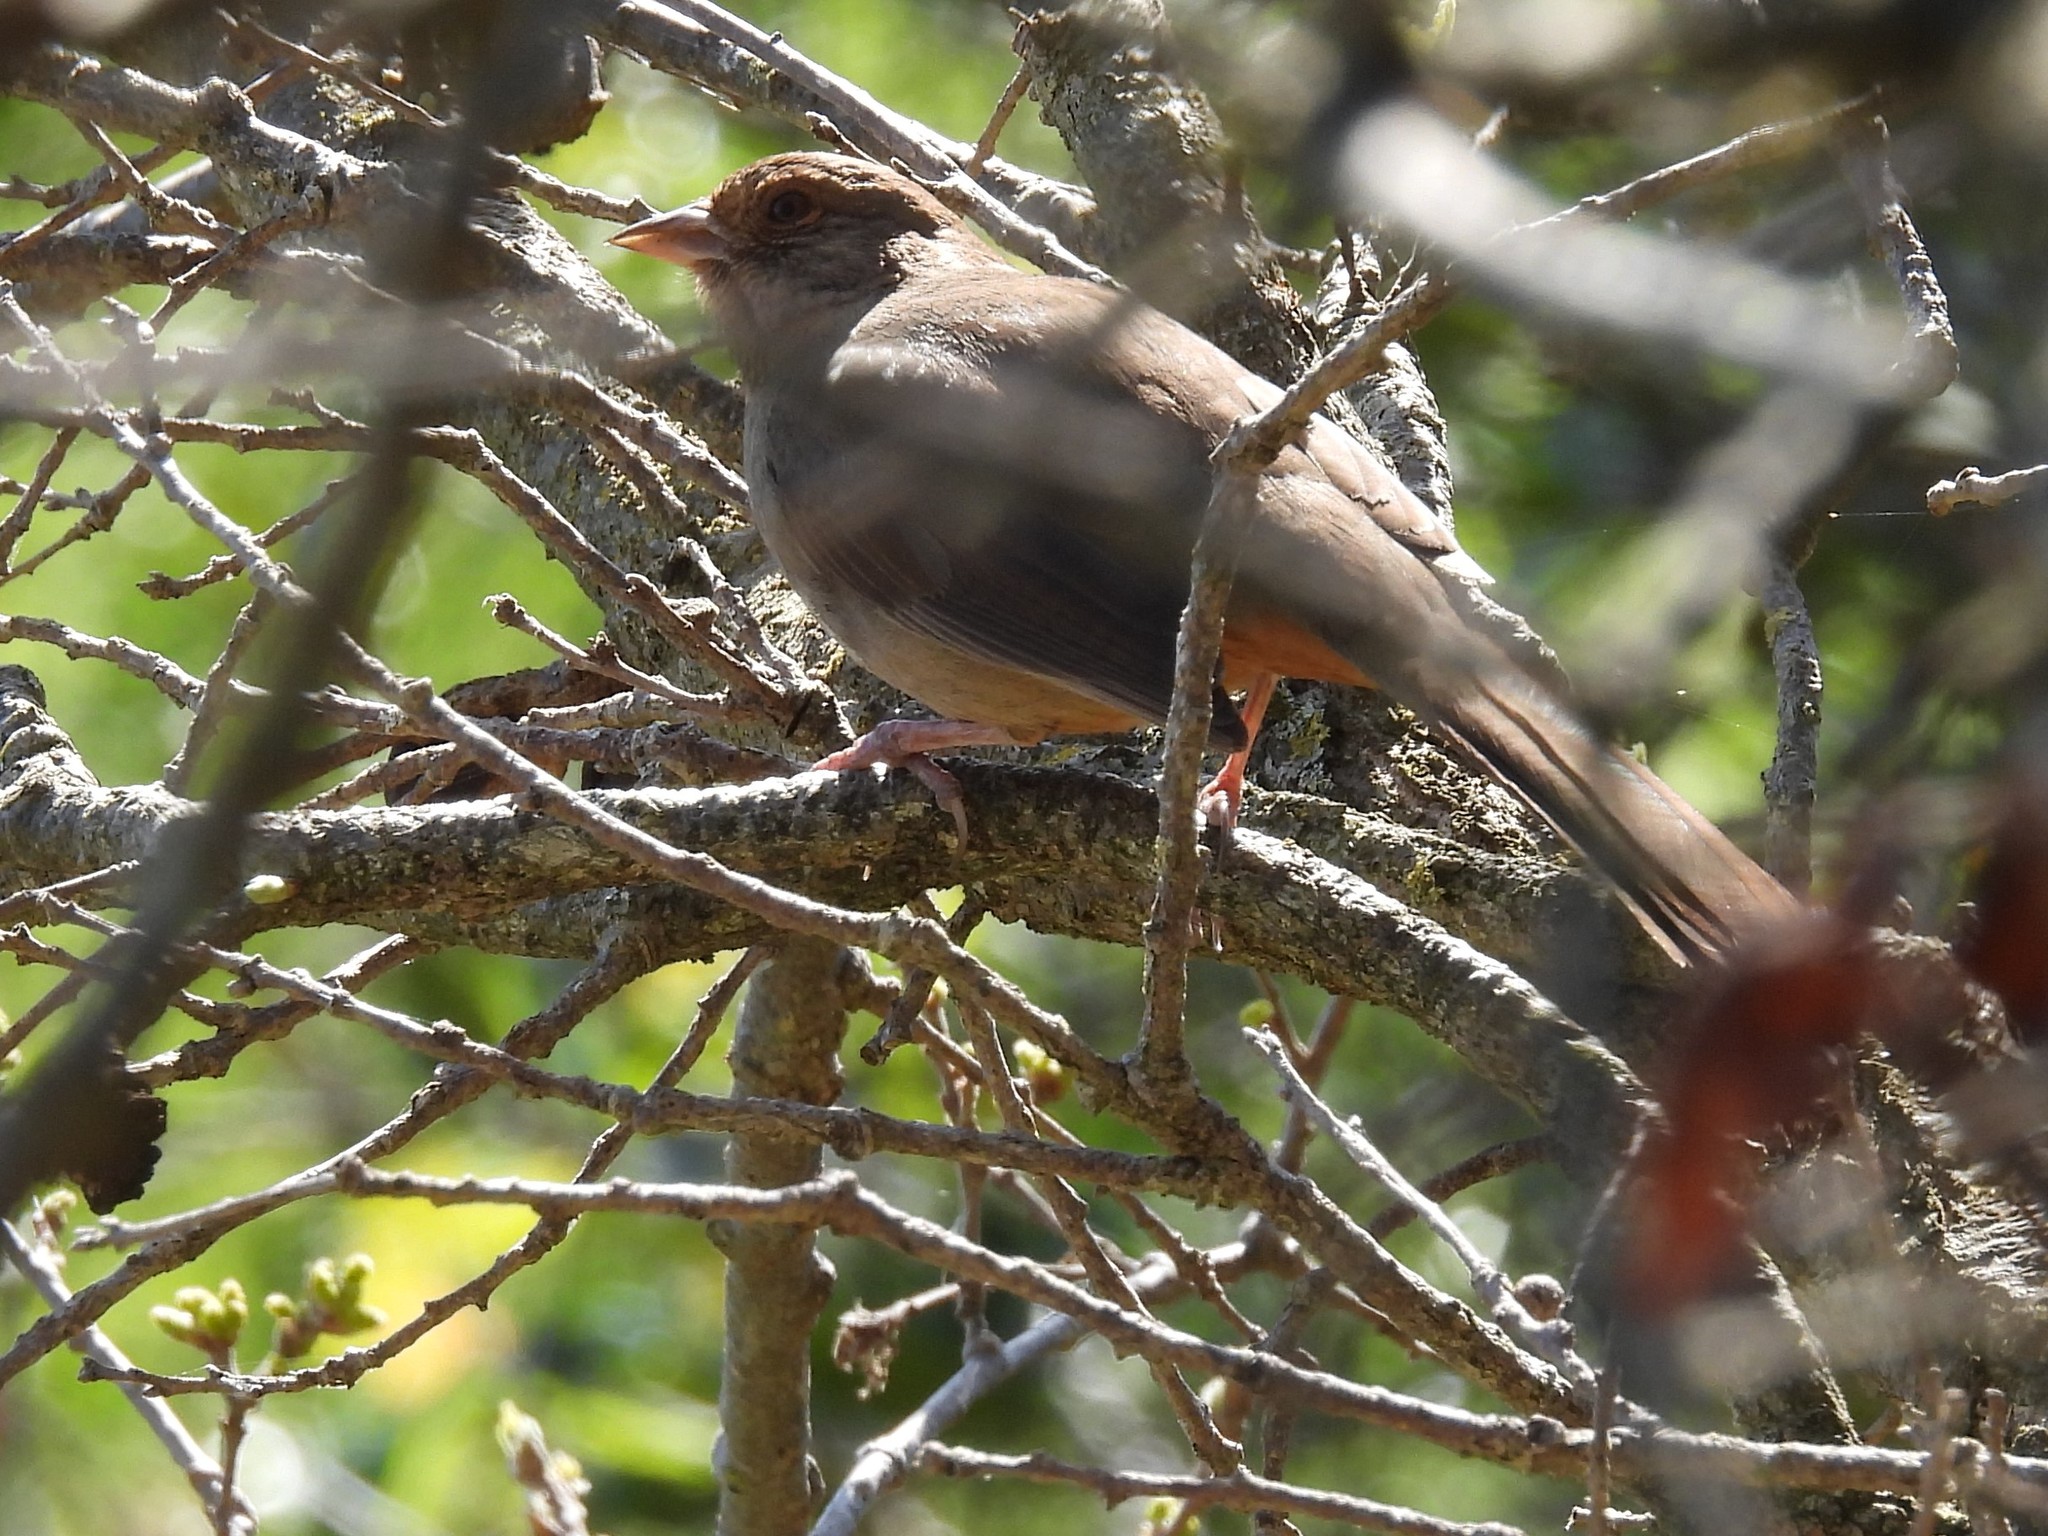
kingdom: Animalia
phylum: Chordata
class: Aves
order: Passeriformes
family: Passerellidae
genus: Melozone
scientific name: Melozone crissalis
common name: California towhee
